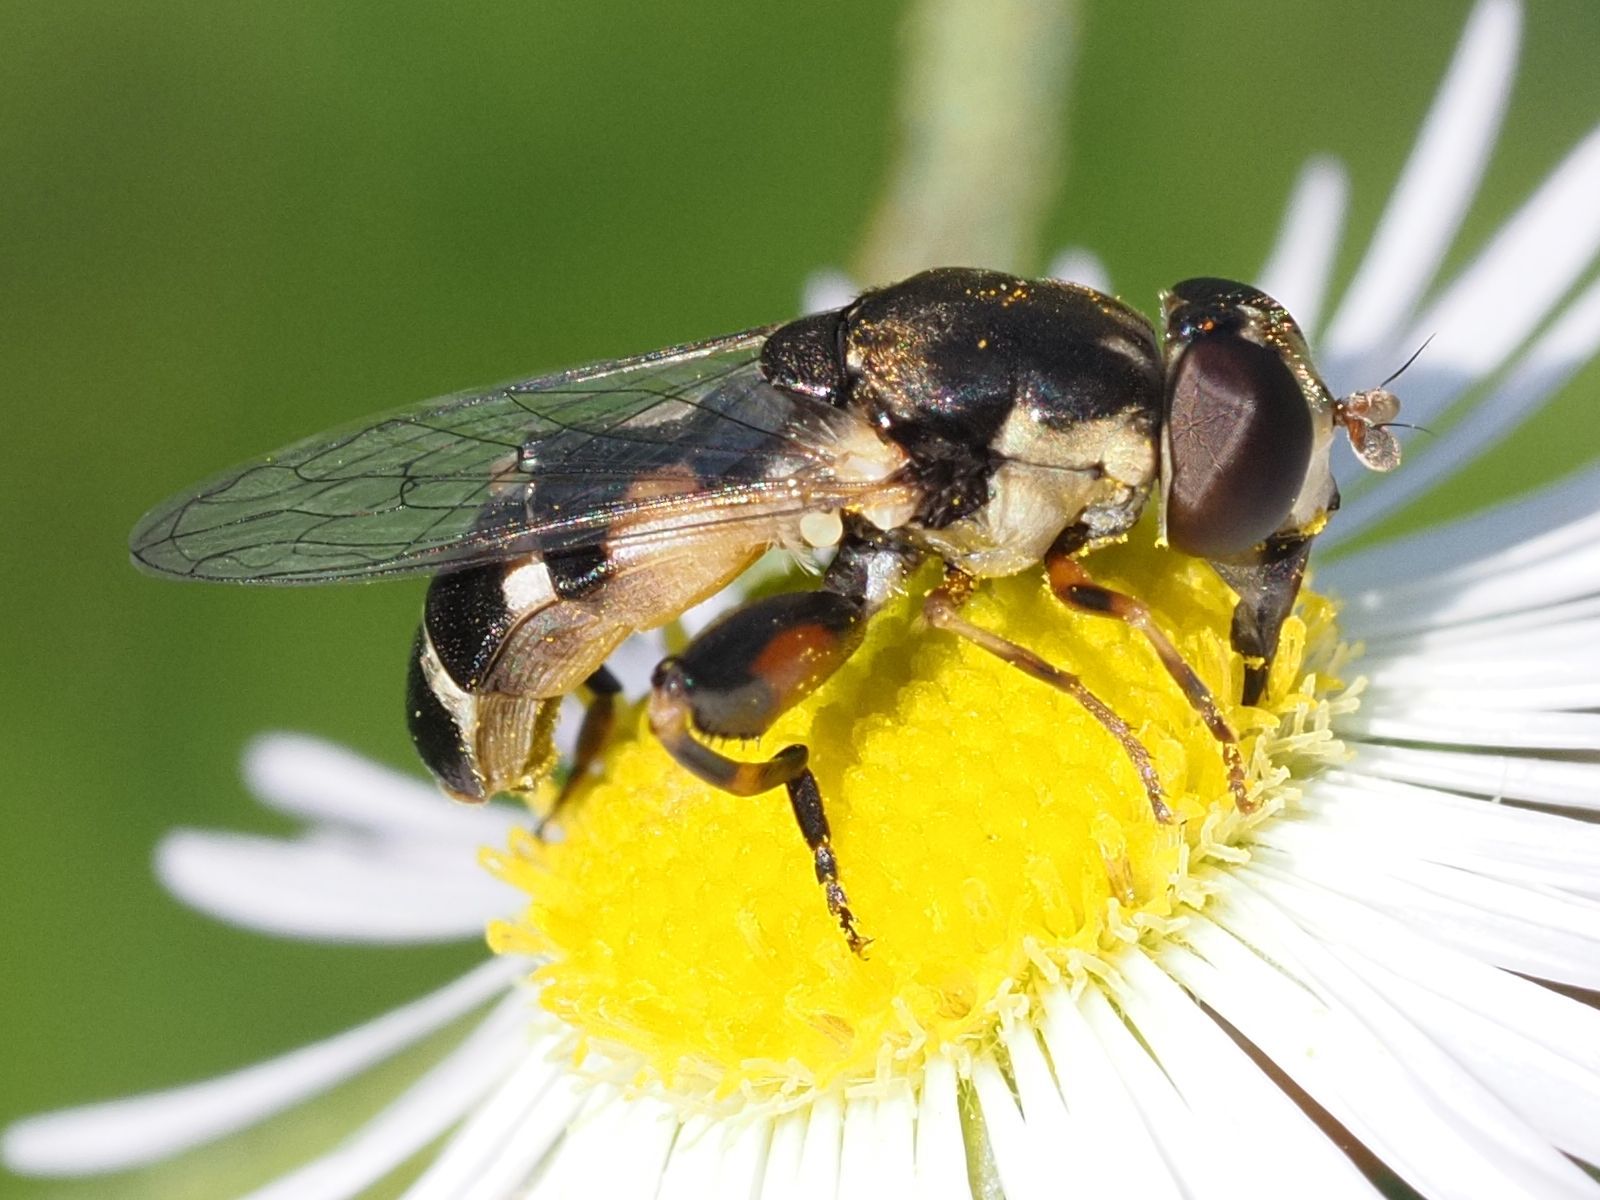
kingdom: Animalia
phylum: Arthropoda
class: Insecta
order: Diptera
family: Syrphidae
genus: Syritta
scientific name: Syritta pipiens
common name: Hover fly
